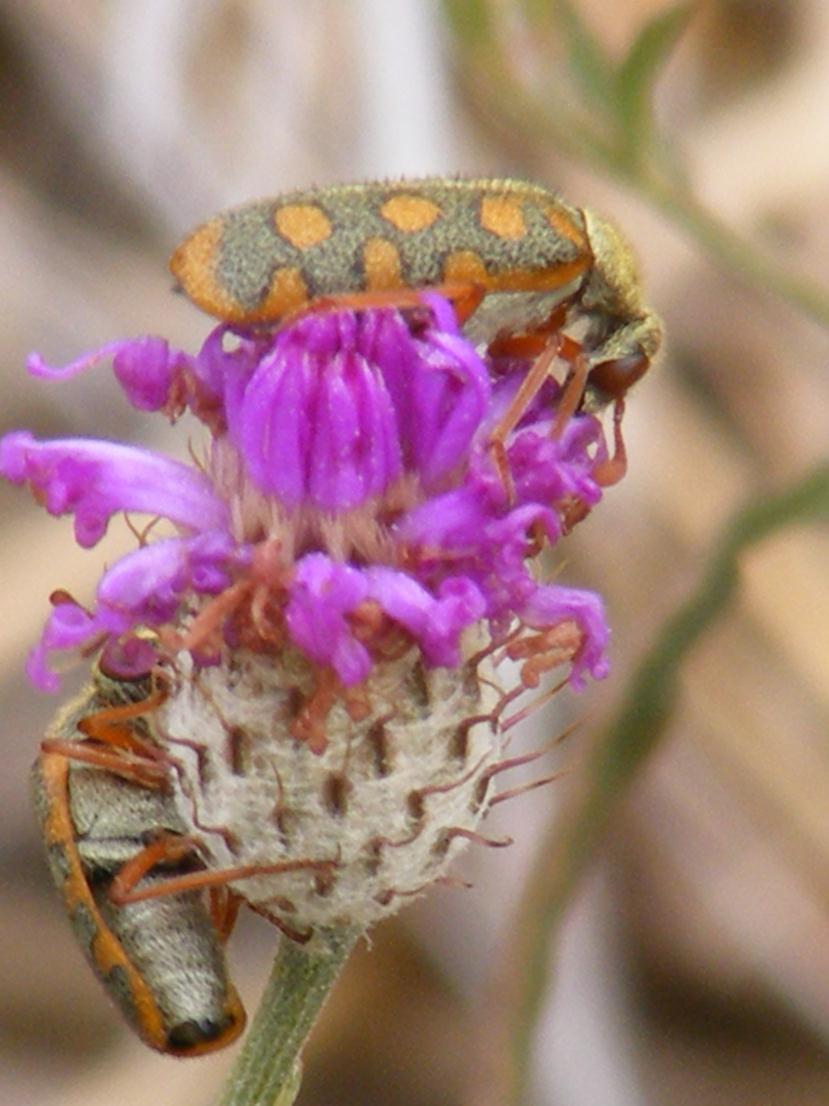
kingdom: Plantae
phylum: Tracheophyta
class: Magnoliopsida
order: Asterales
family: Asteraceae
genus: Parapolydora
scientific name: Parapolydora fastigiata
